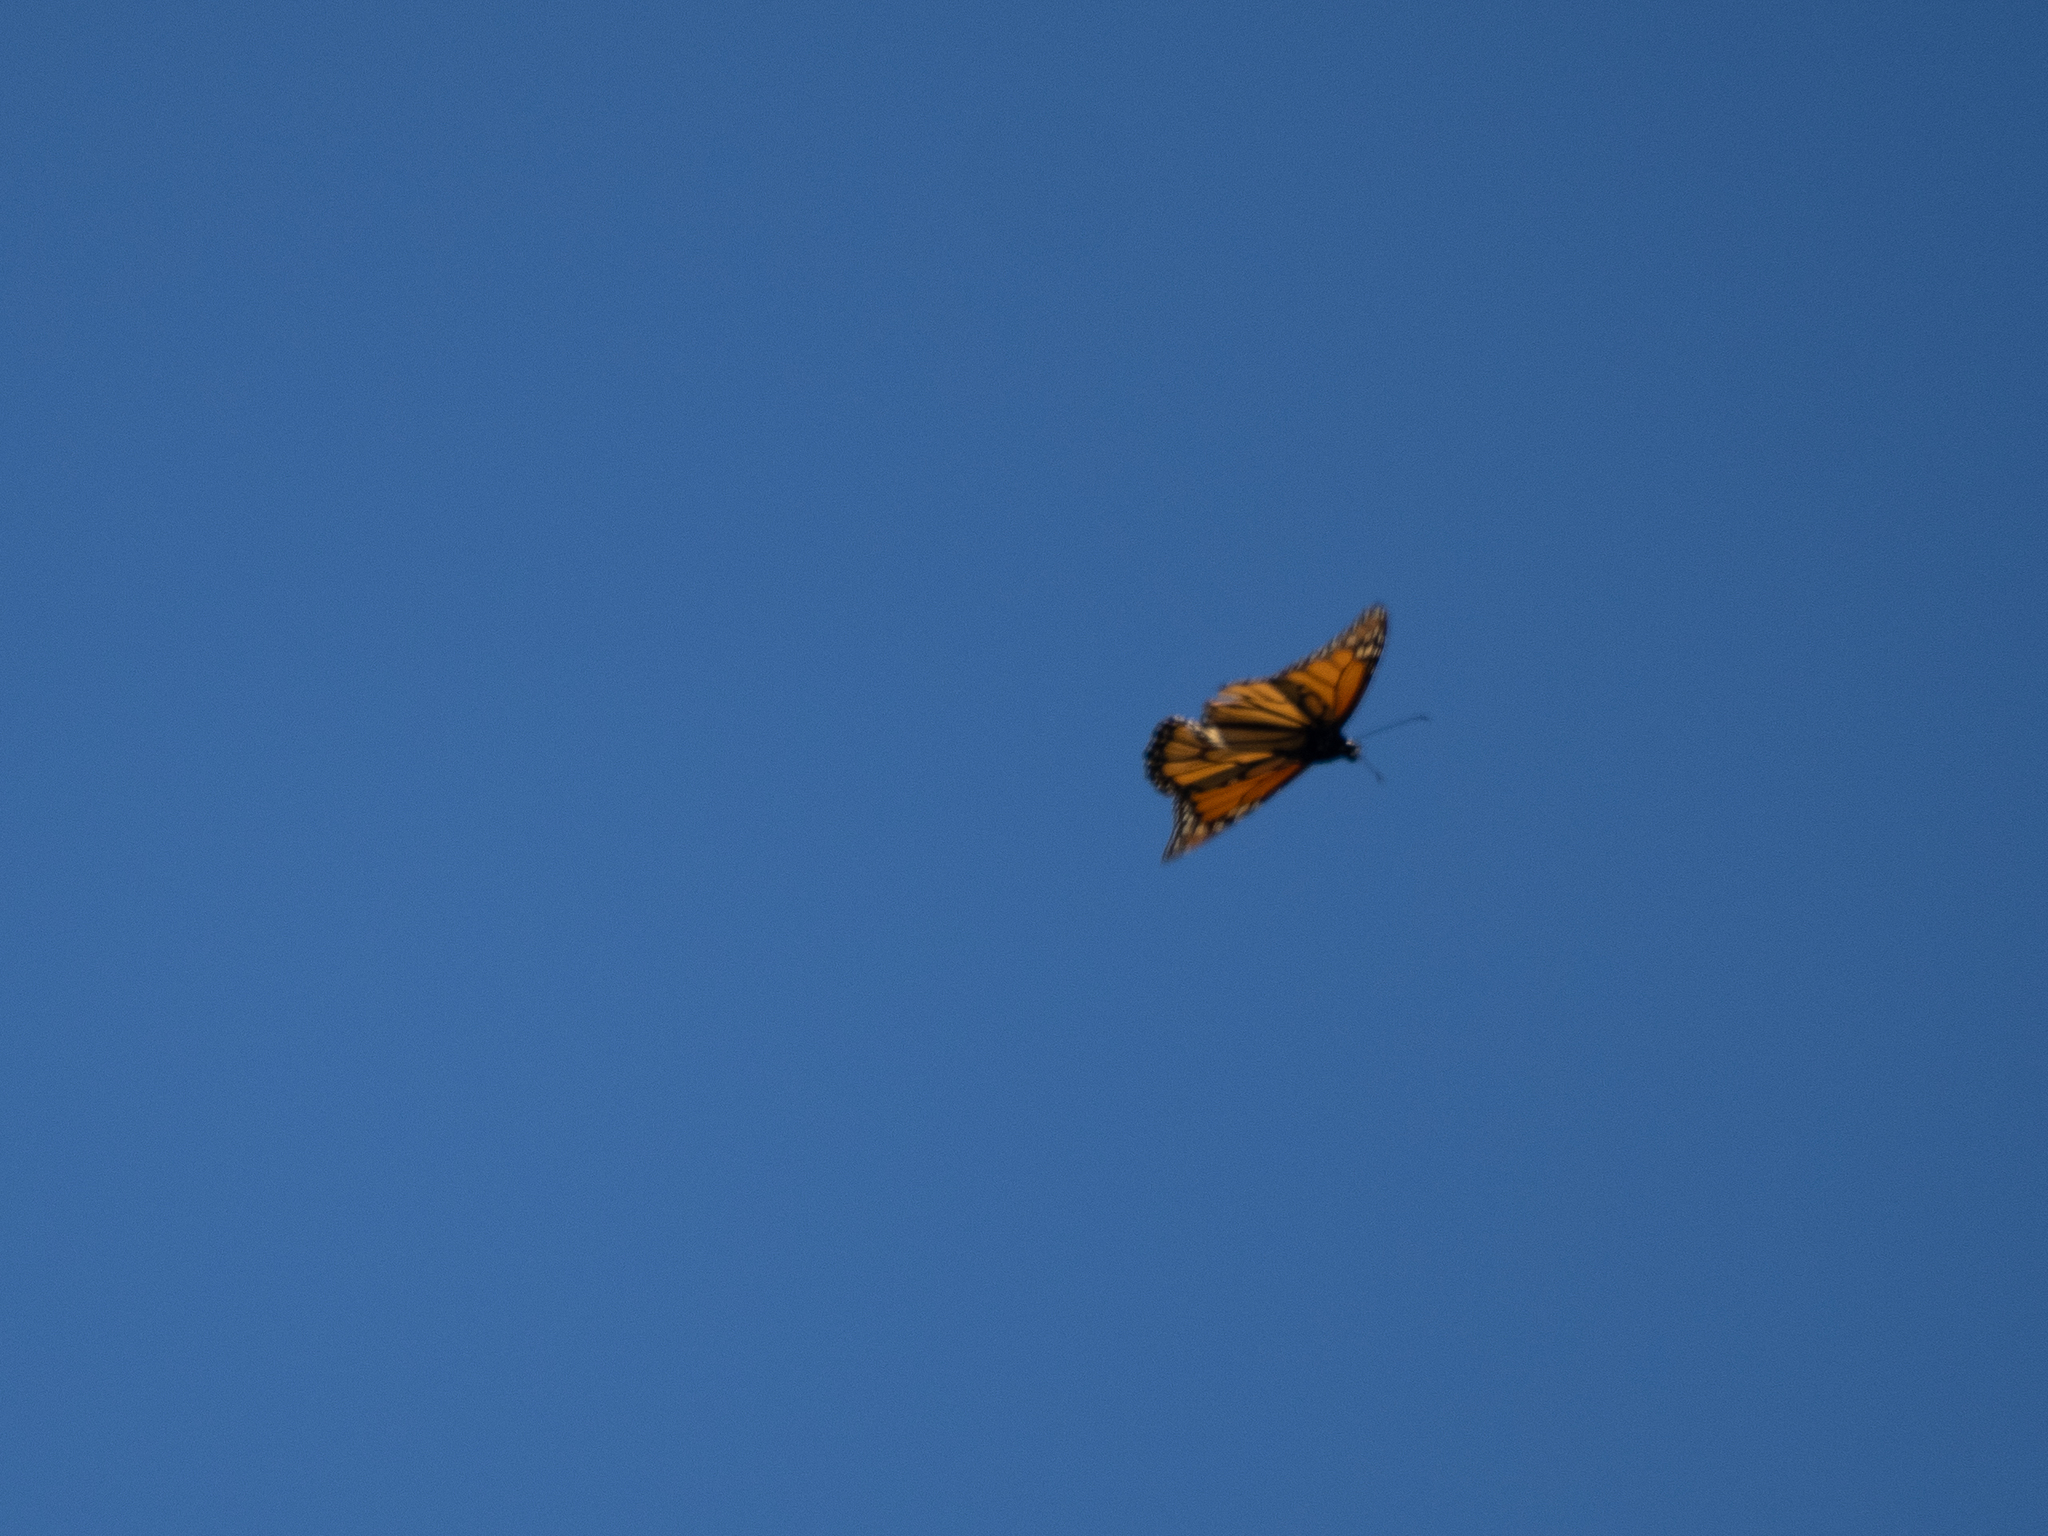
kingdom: Animalia
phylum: Arthropoda
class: Insecta
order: Lepidoptera
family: Nymphalidae
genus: Danaus
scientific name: Danaus plexippus
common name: Monarch
